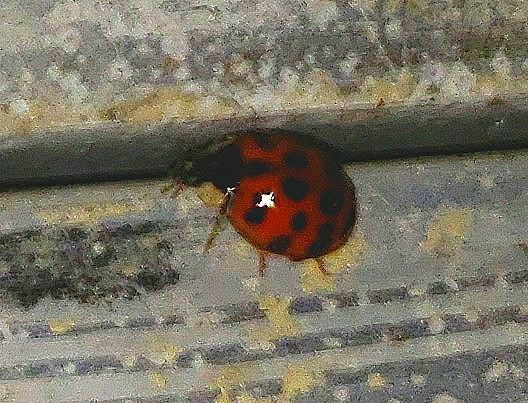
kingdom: Animalia
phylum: Arthropoda
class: Insecta
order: Coleoptera
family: Coccinellidae
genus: Harmonia
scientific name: Harmonia axyridis
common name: Harlequin ladybird
